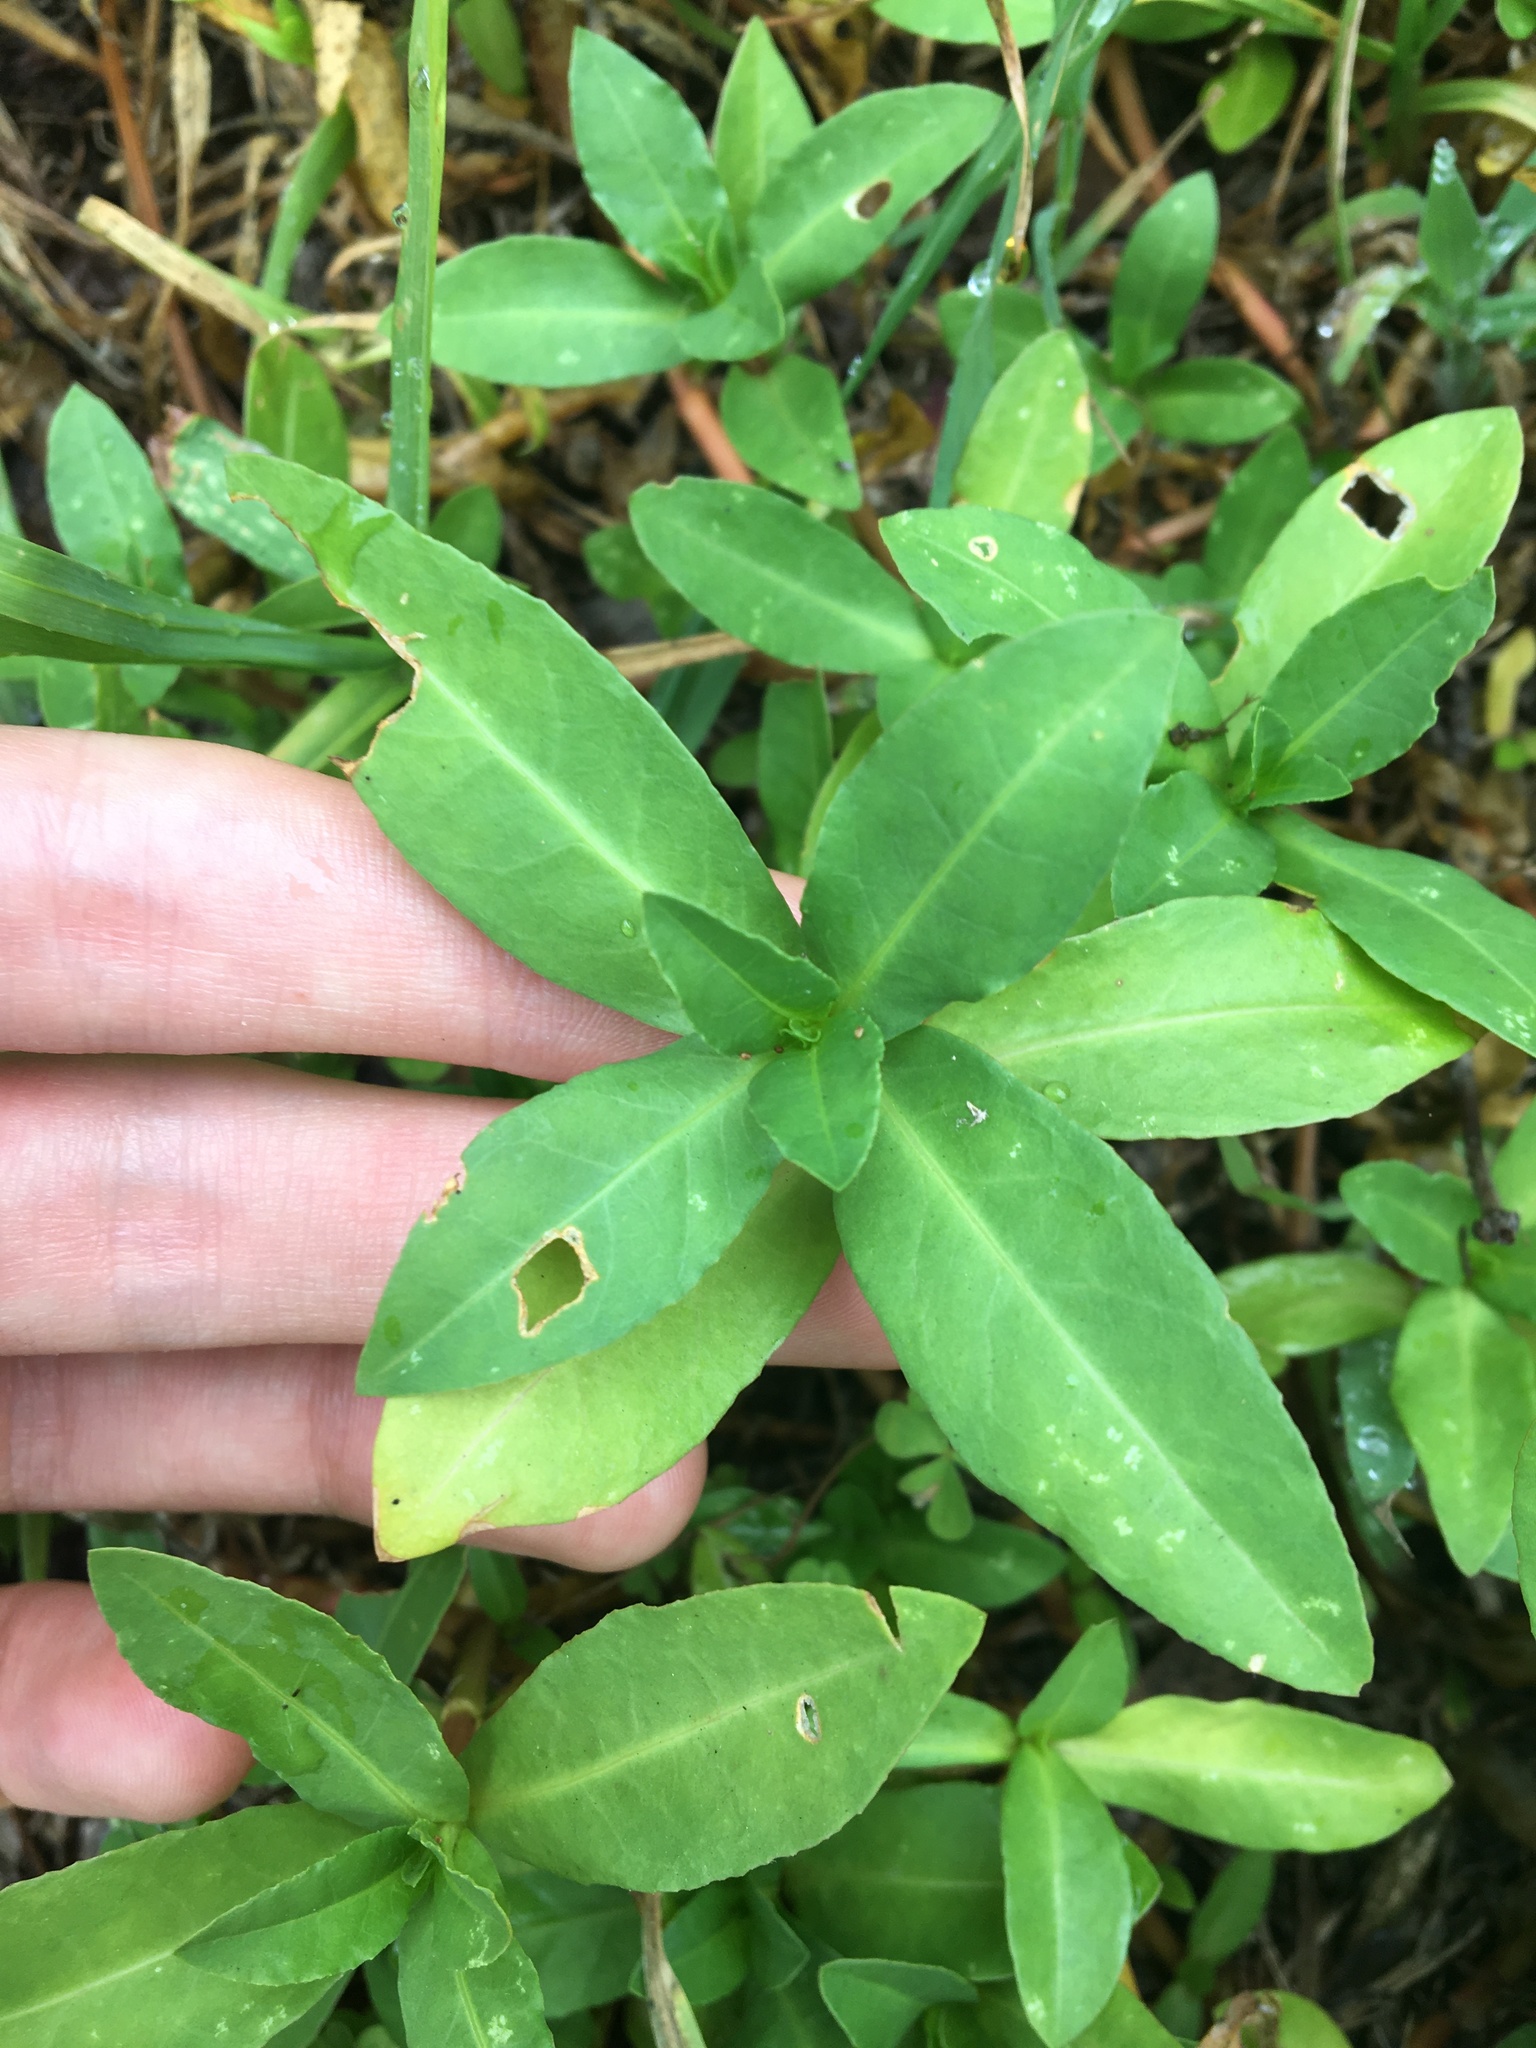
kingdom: Plantae
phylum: Tracheophyta
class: Magnoliopsida
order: Caryophyllales
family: Amaranthaceae
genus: Alternanthera
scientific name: Alternanthera philoxeroides
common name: Alligatorweed
